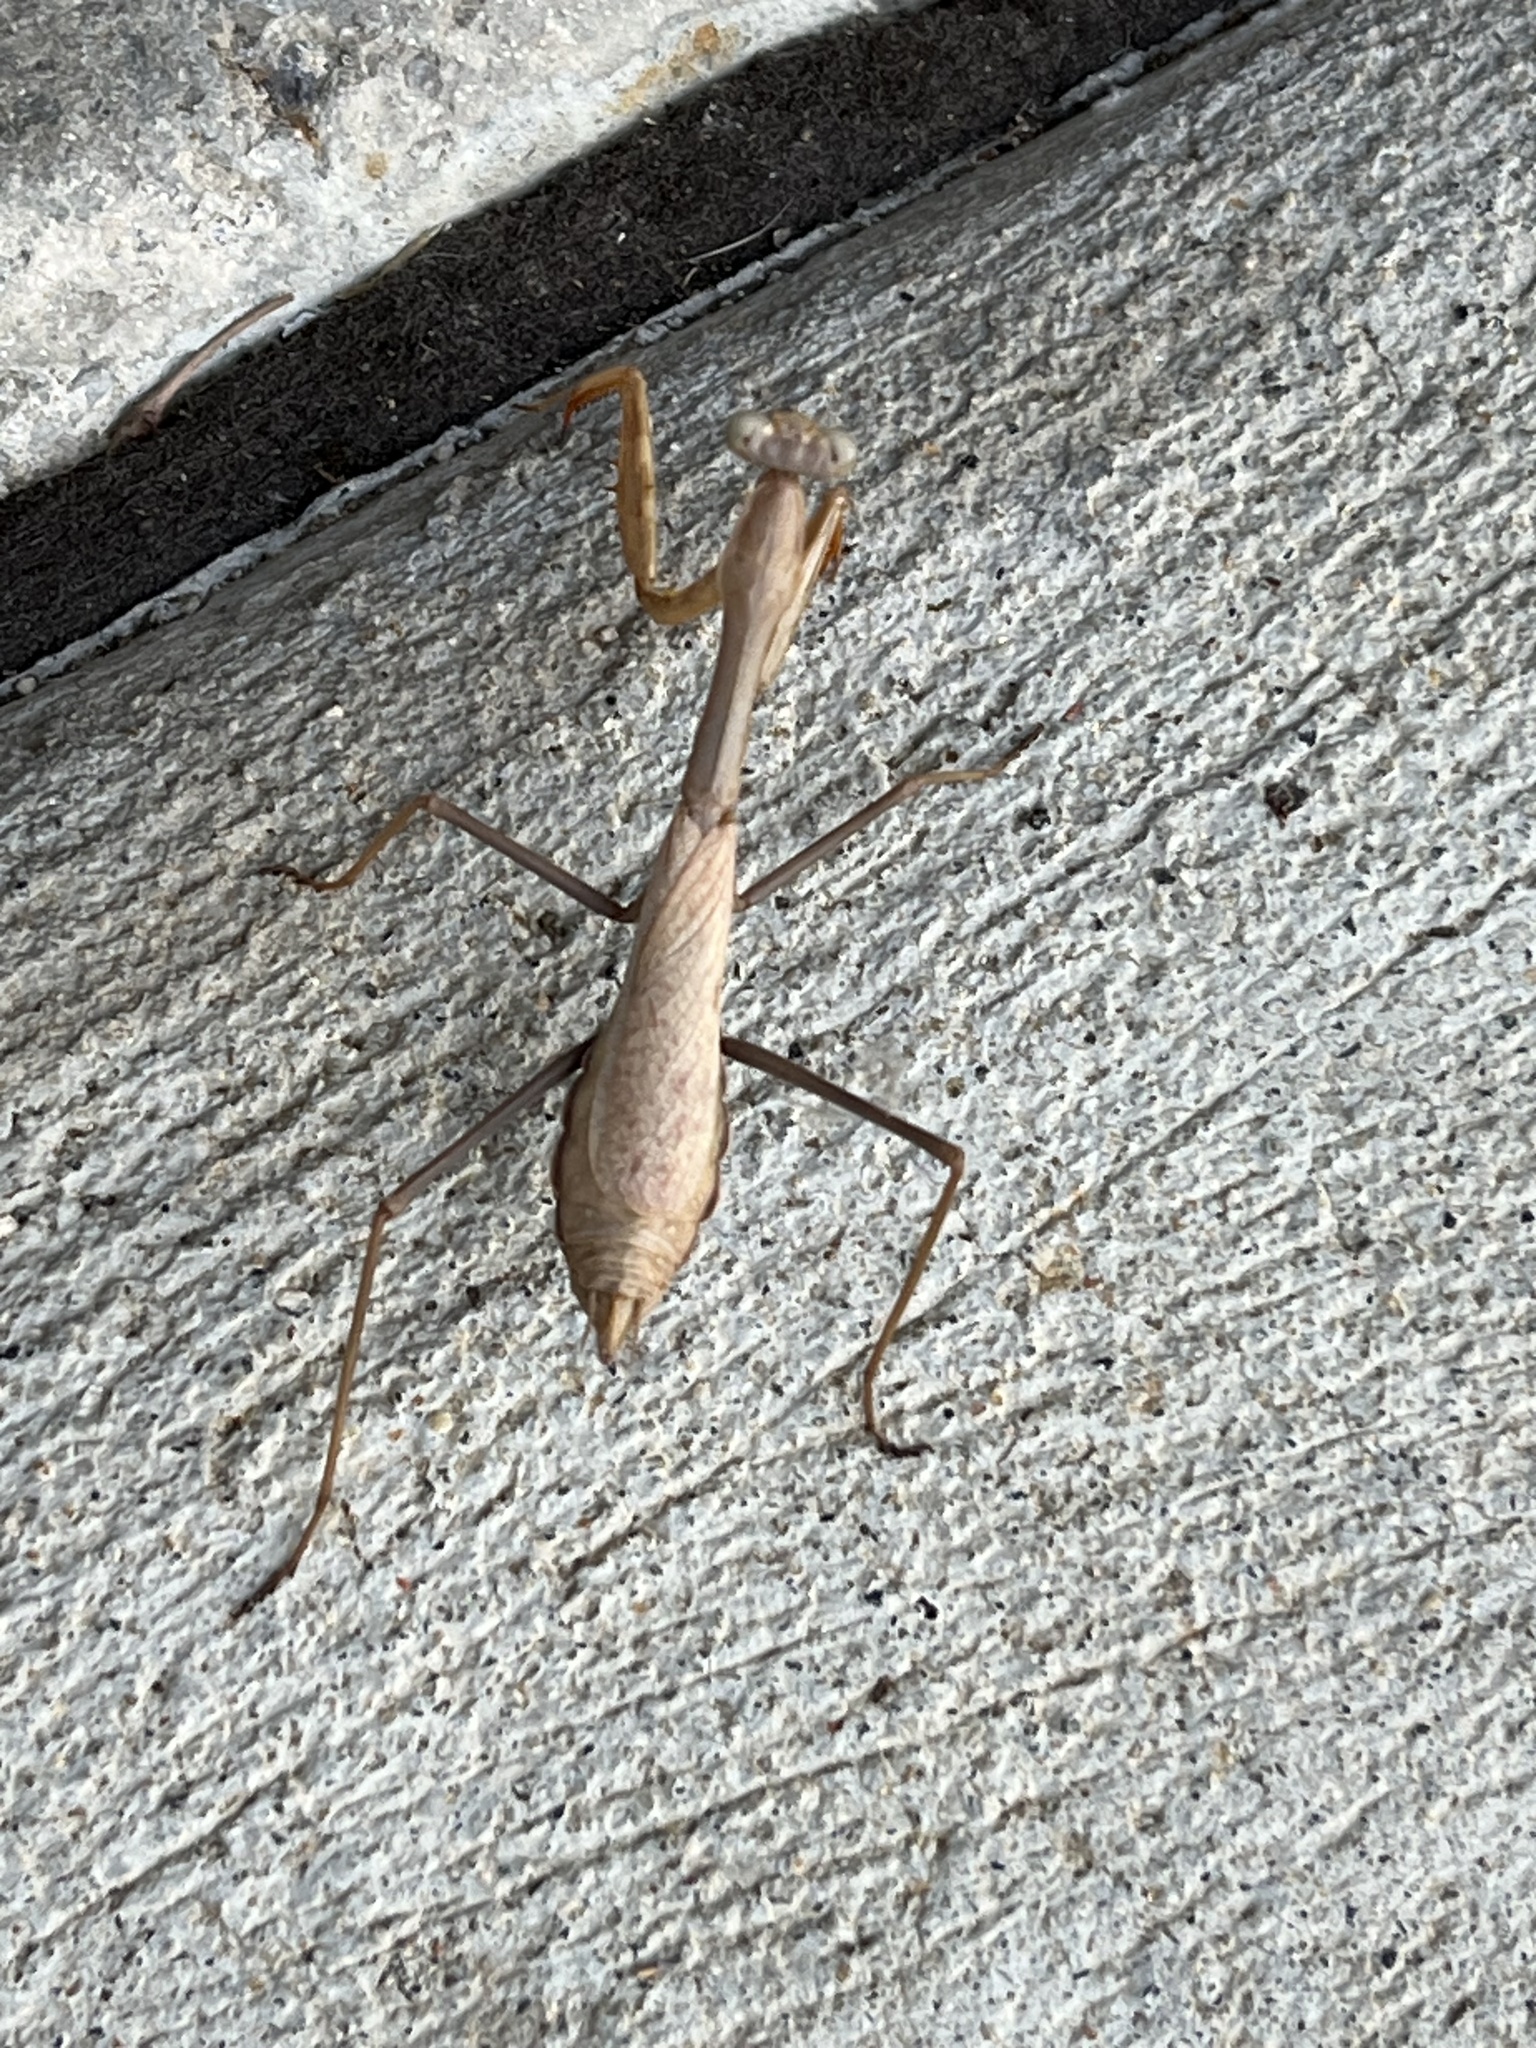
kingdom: Animalia
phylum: Arthropoda
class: Insecta
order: Mantodea
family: Mantidae
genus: Stagmomantis
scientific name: Stagmomantis californica
